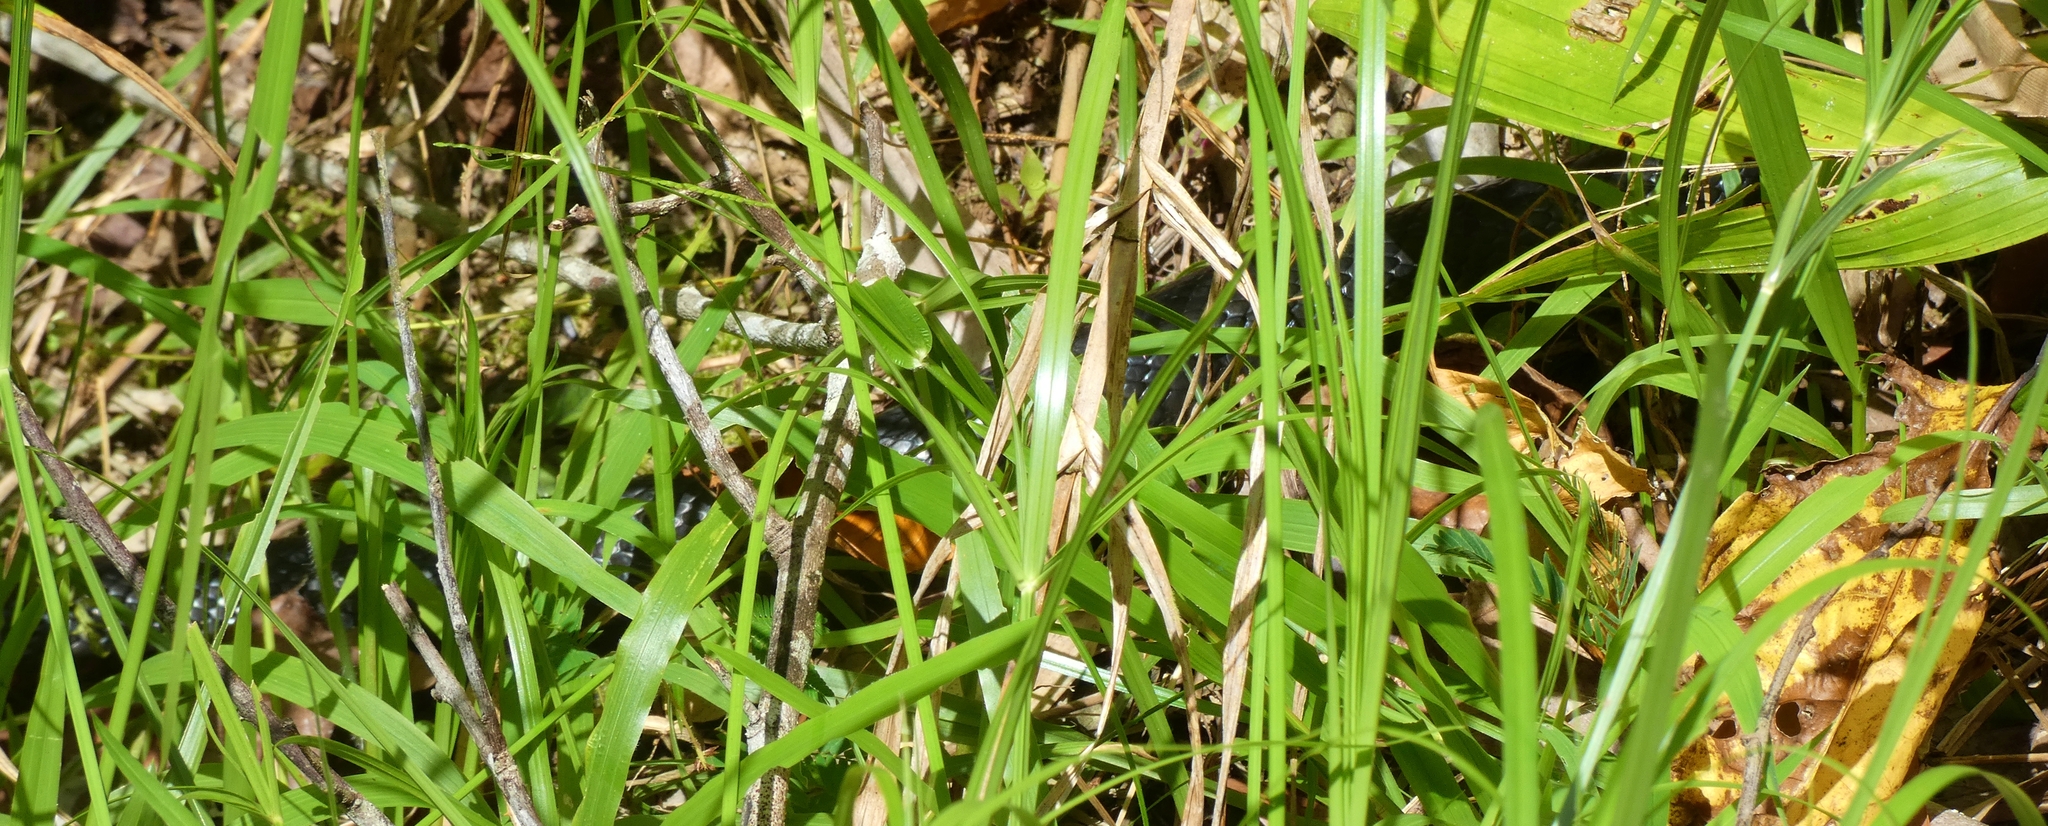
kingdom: Animalia
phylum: Chordata
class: Squamata
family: Elapidae
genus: Pseudechis
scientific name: Pseudechis porphyriacus
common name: Australian black snake
